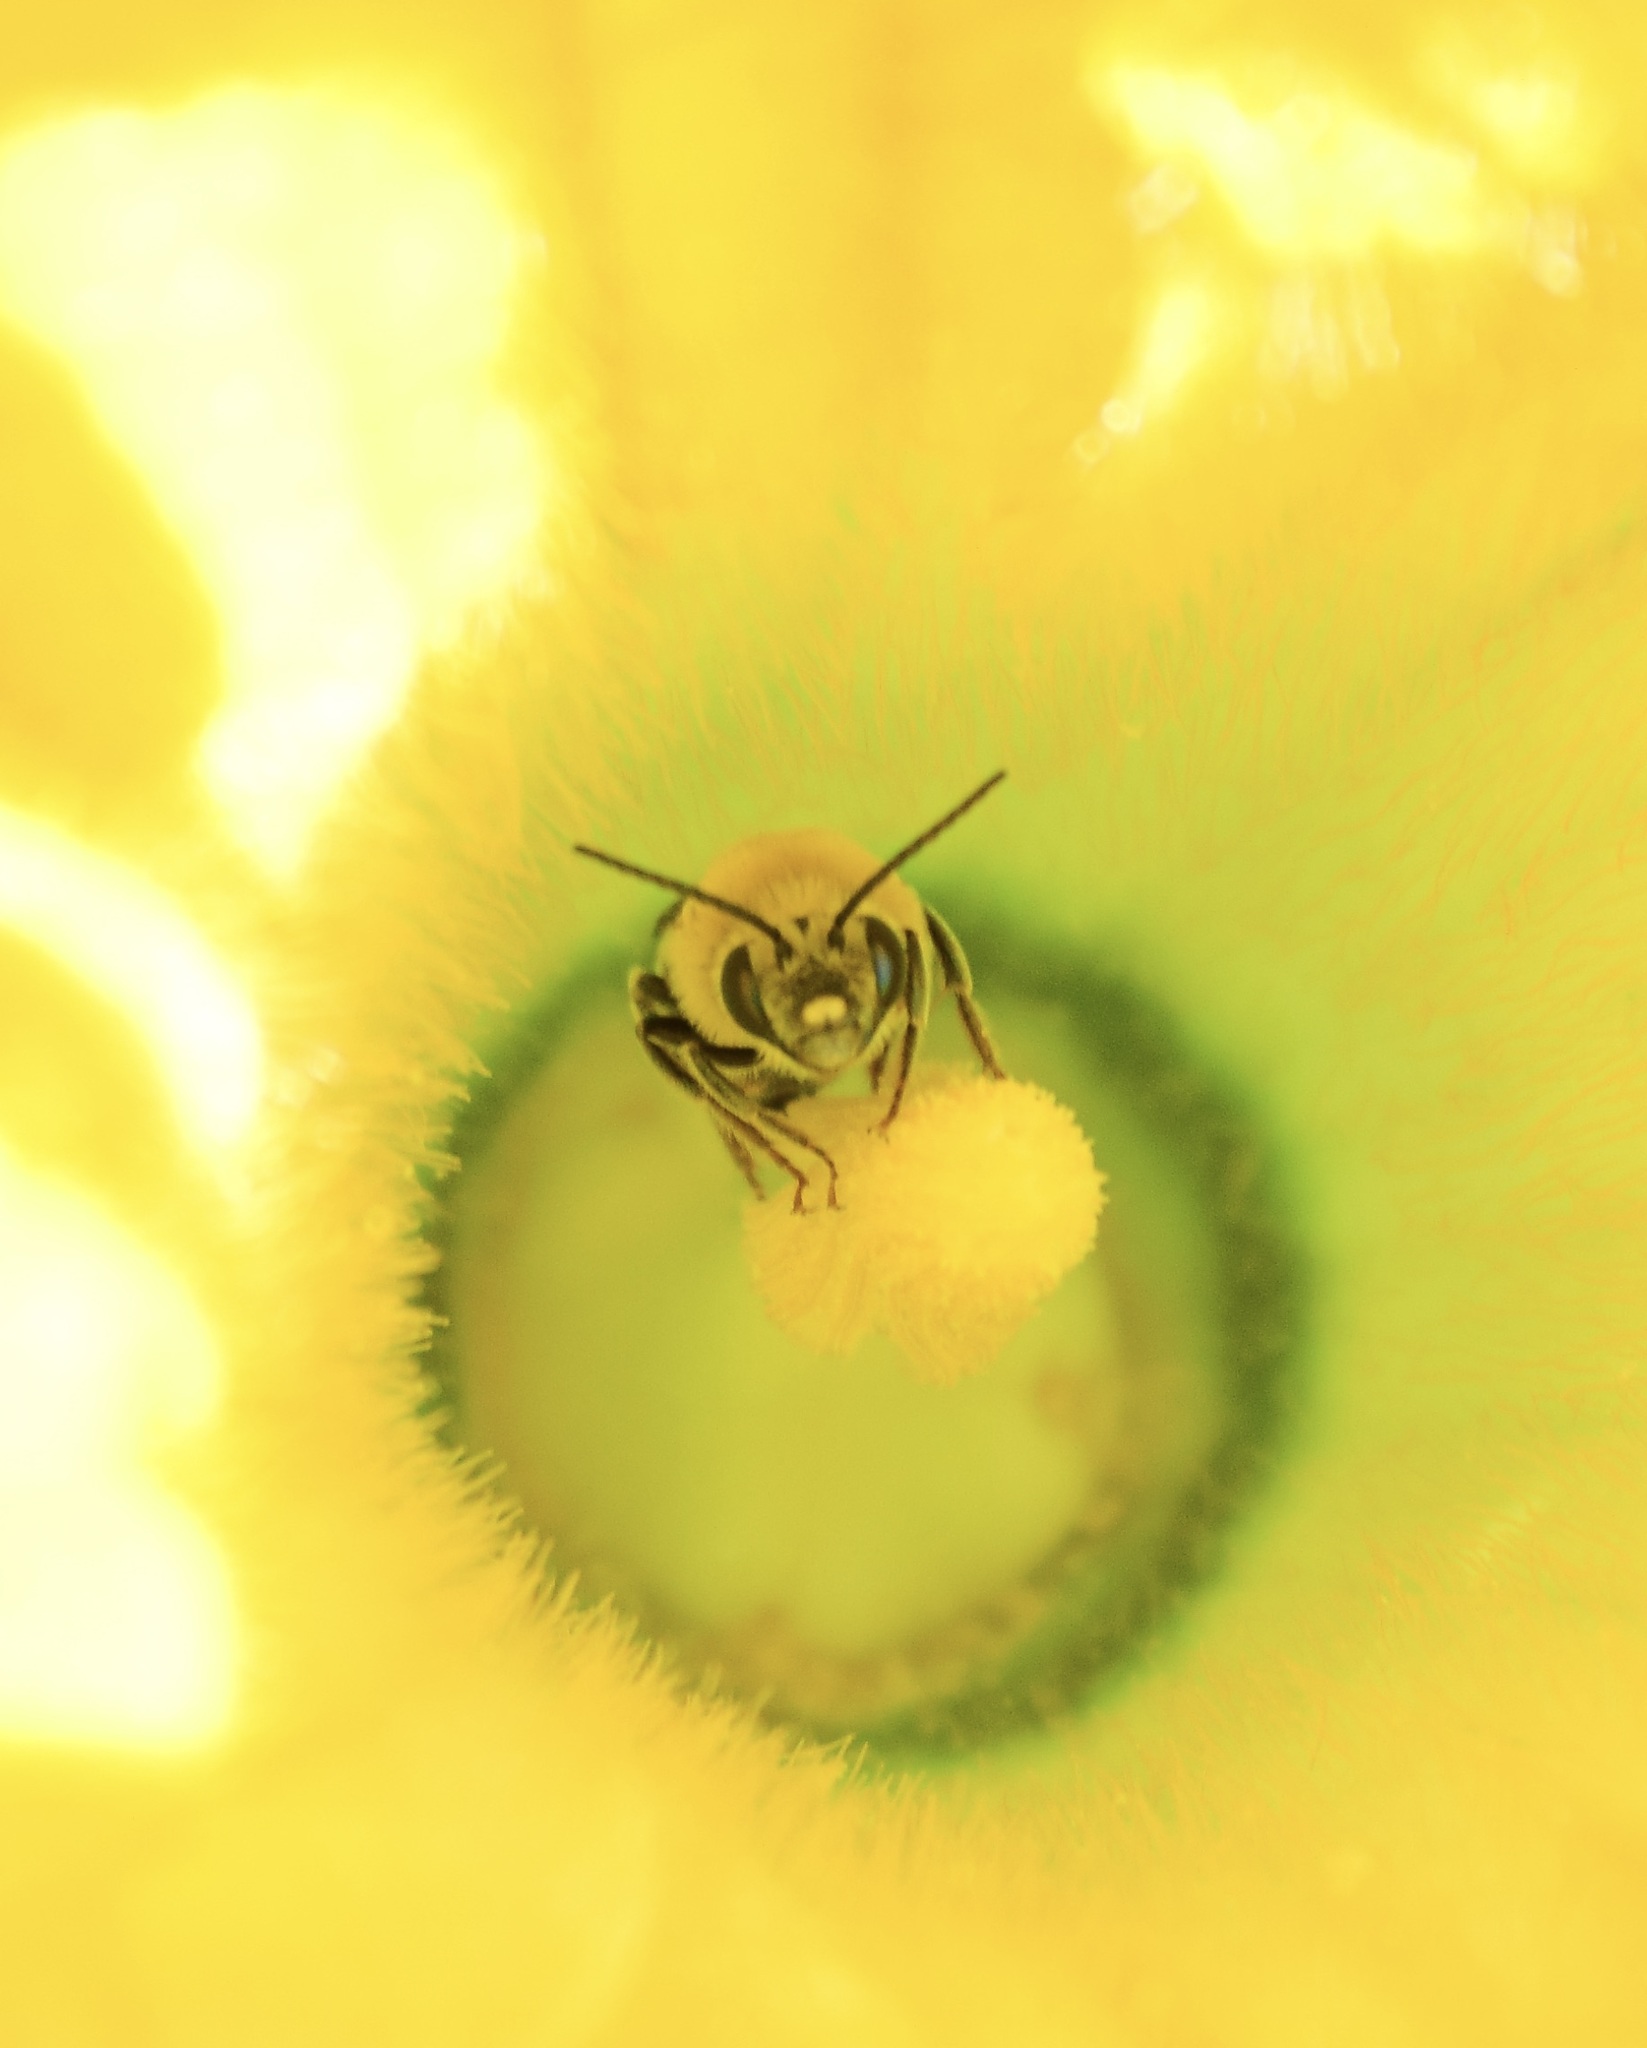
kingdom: Animalia
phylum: Arthropoda
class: Insecta
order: Hymenoptera
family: Apidae
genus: Peponapis
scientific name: Peponapis pruinosa
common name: Pruinose squash bee
